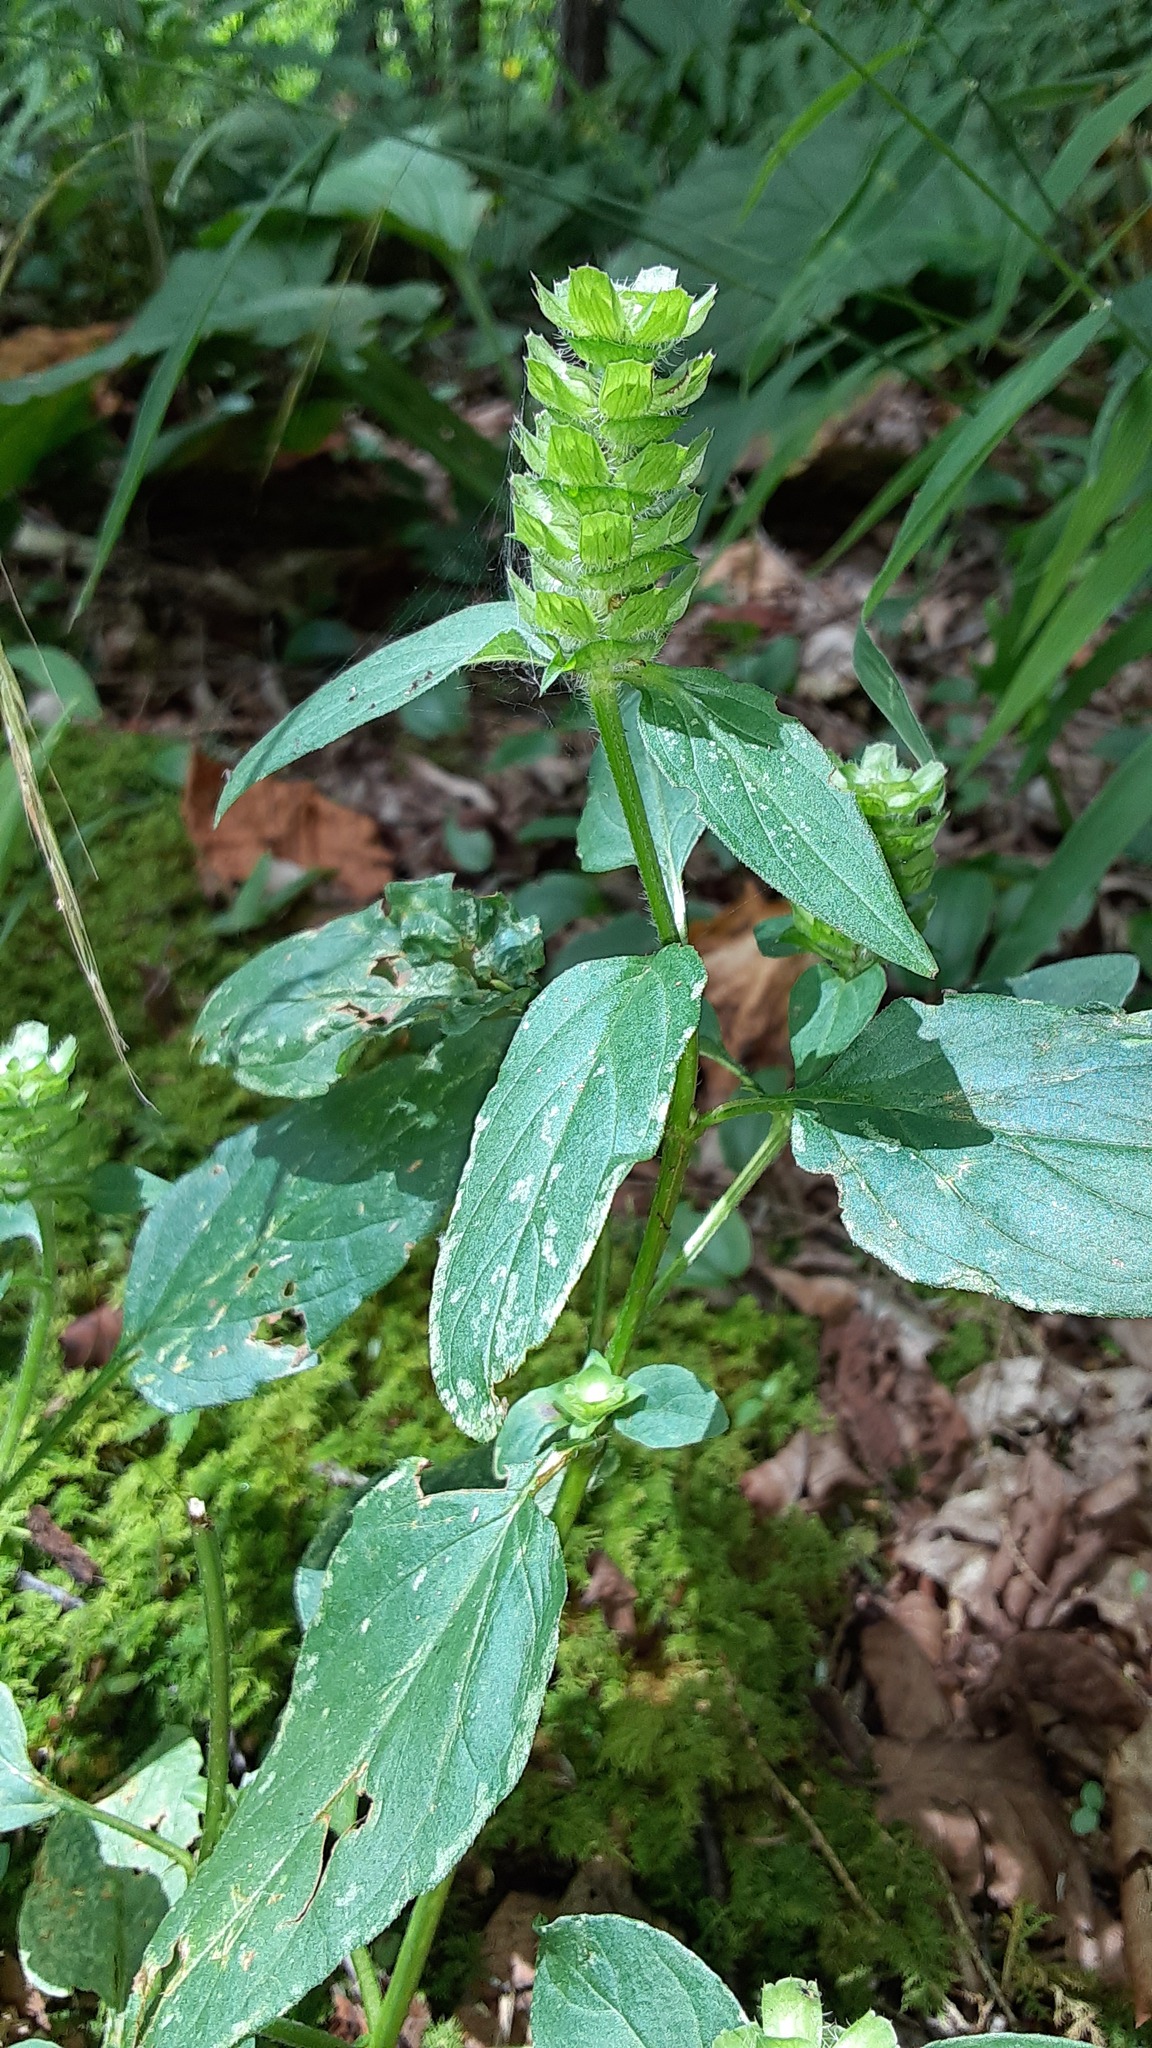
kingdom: Plantae
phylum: Tracheophyta
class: Magnoliopsida
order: Lamiales
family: Lamiaceae
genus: Prunella
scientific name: Prunella vulgaris
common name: Heal-all
